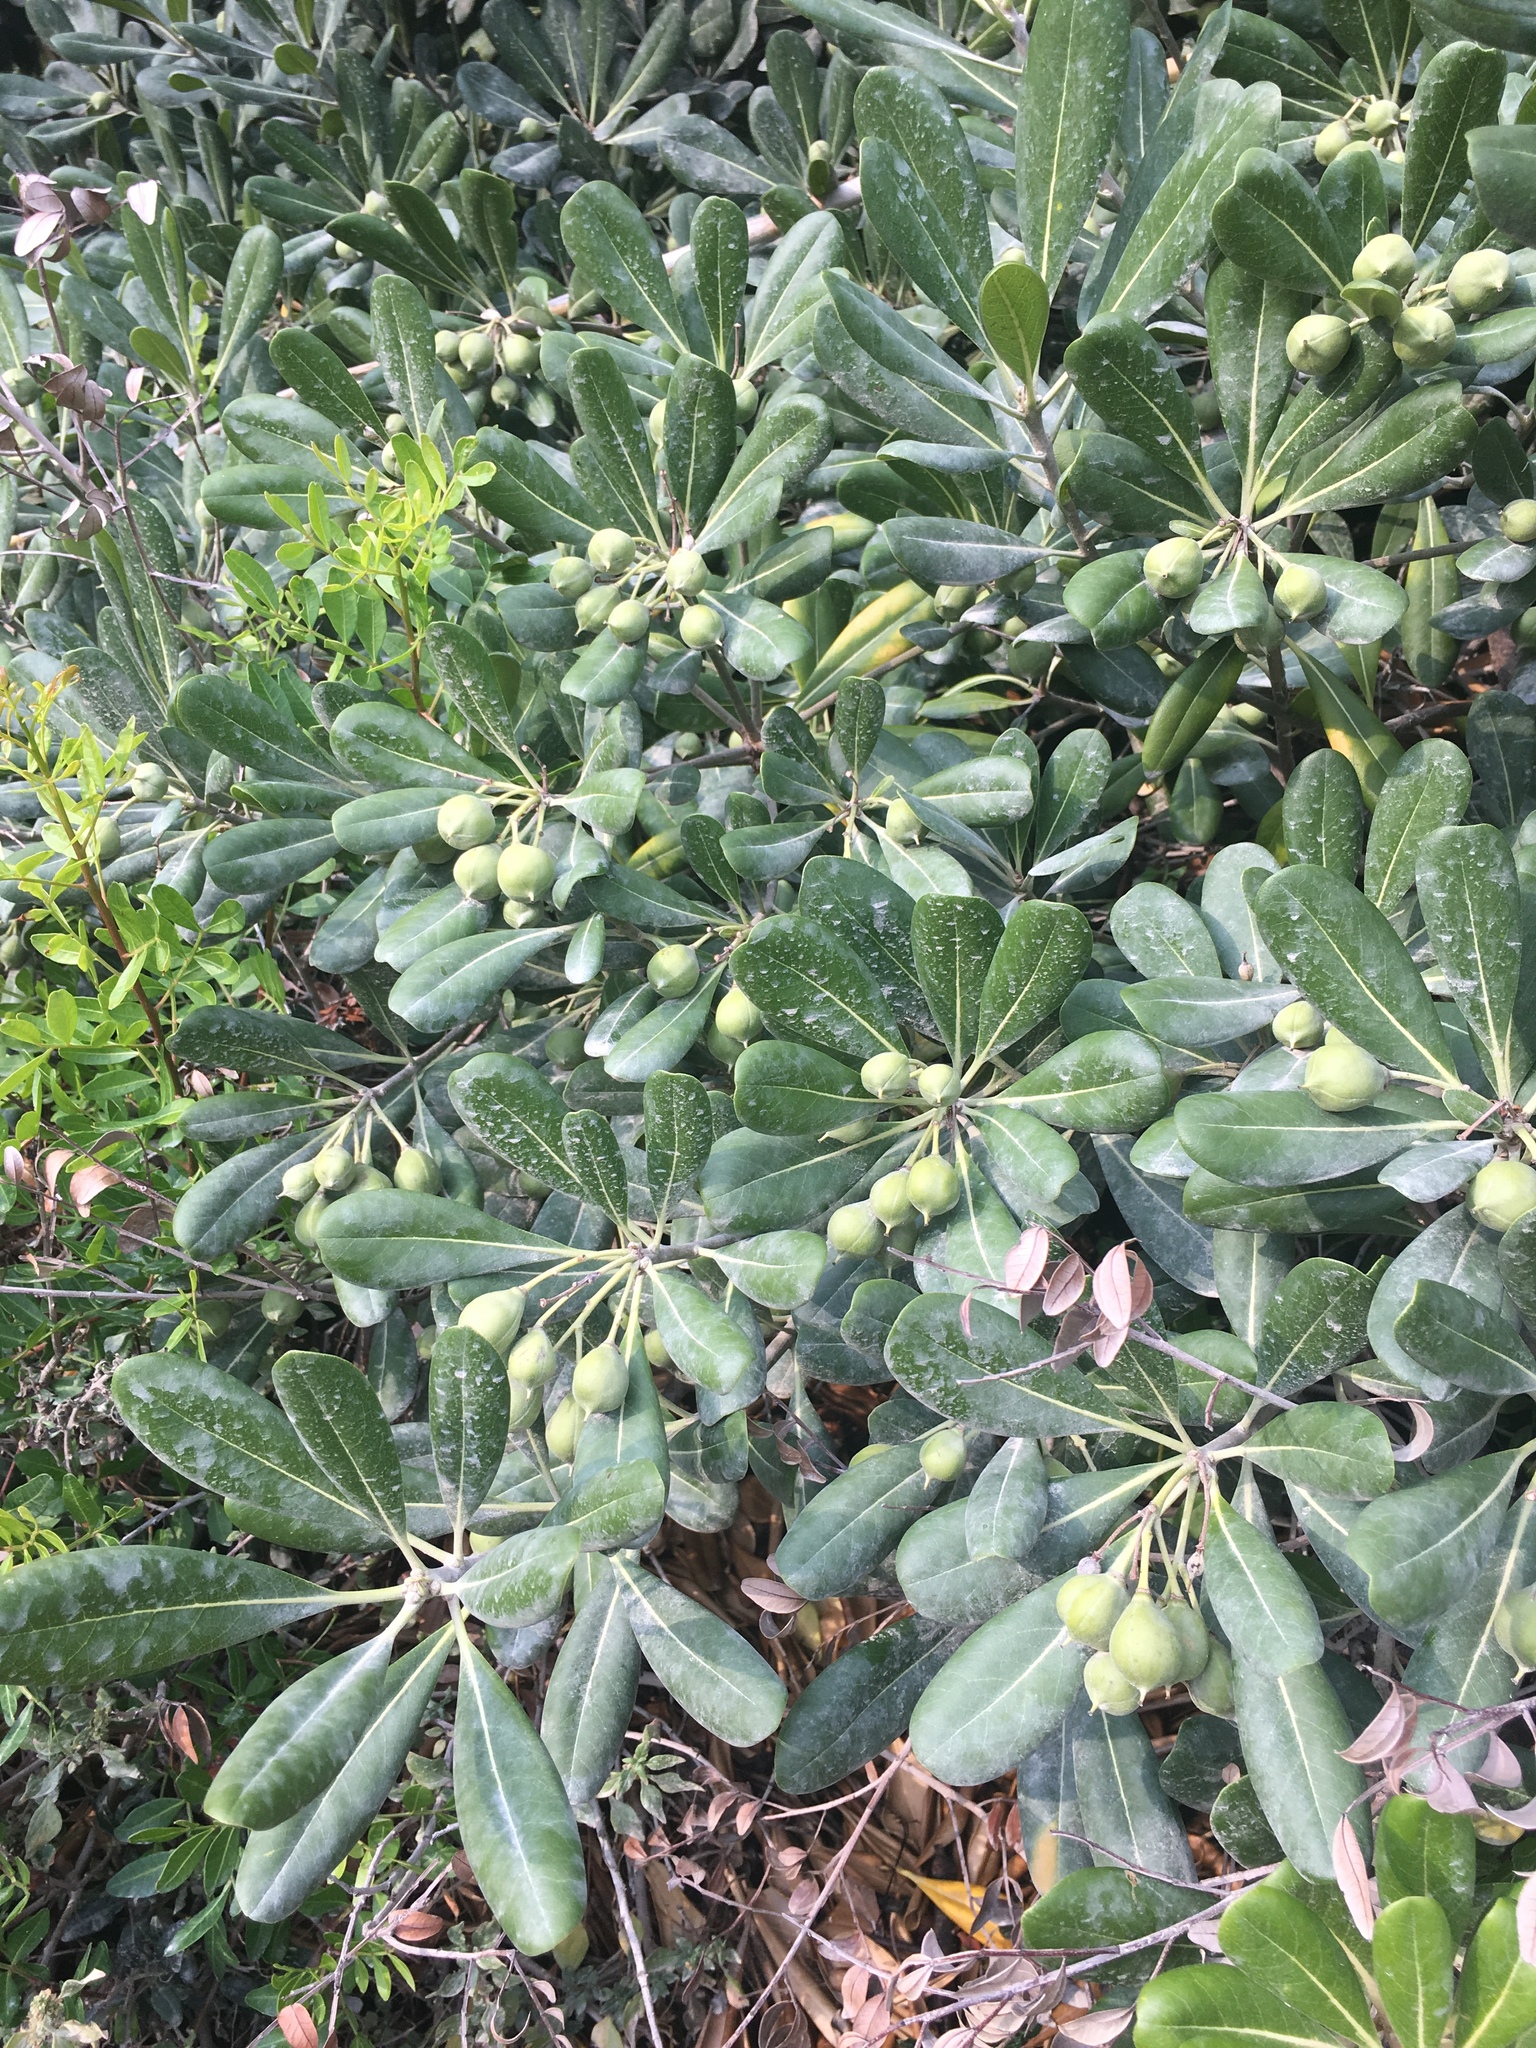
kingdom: Plantae
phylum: Tracheophyta
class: Magnoliopsida
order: Apiales
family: Pittosporaceae
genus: Pittosporum
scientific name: Pittosporum tobira
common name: Japanese cheesewood
